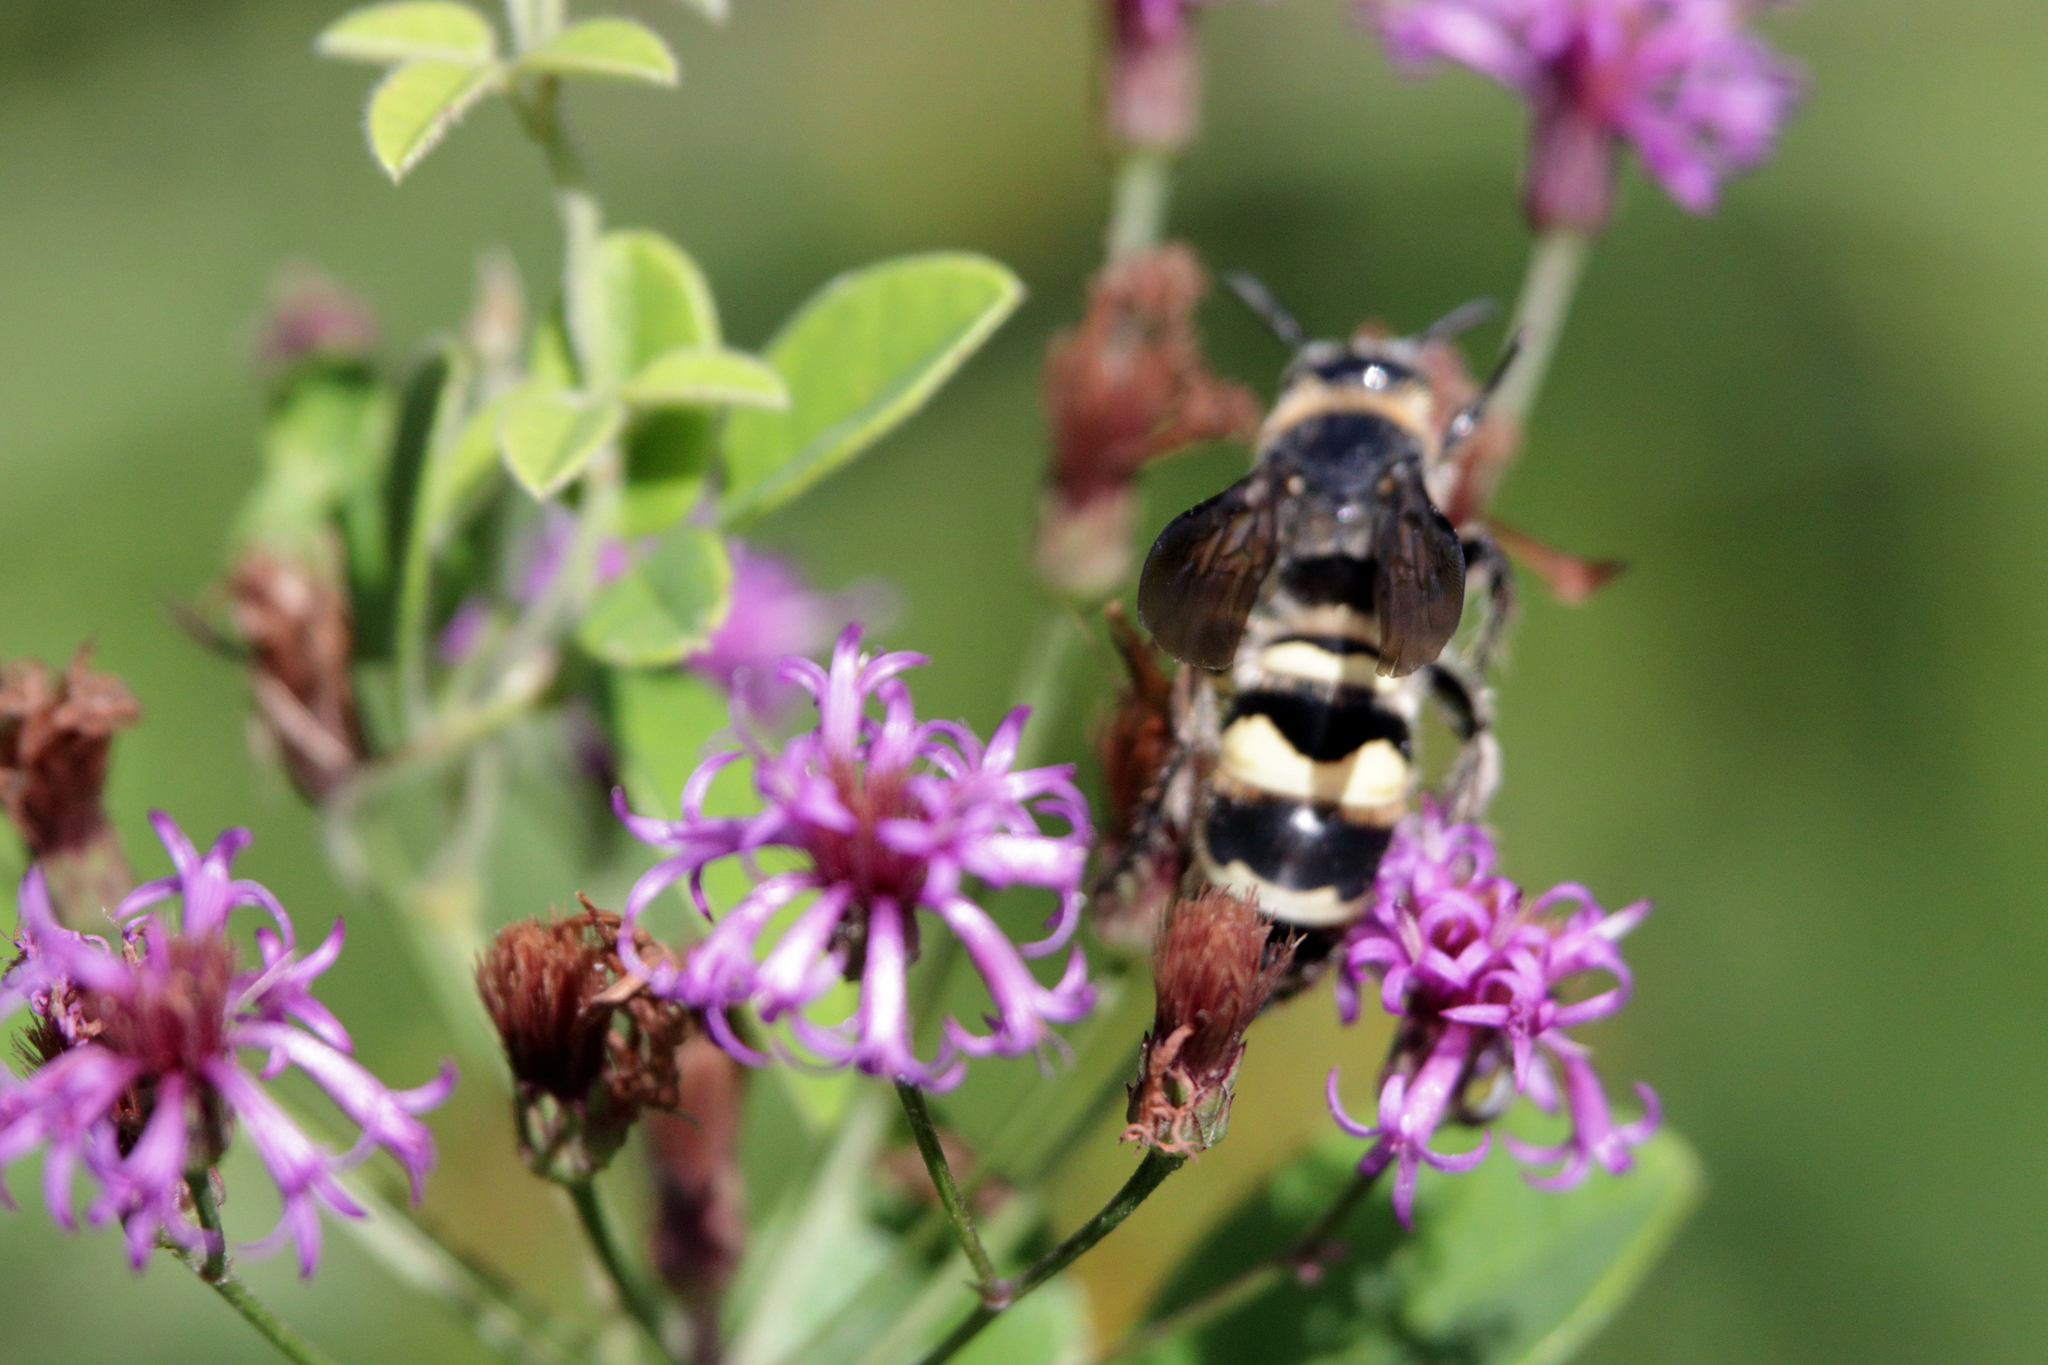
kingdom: Animalia
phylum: Arthropoda
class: Insecta
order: Hymenoptera
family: Scoliidae
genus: Dielis
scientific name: Dielis
